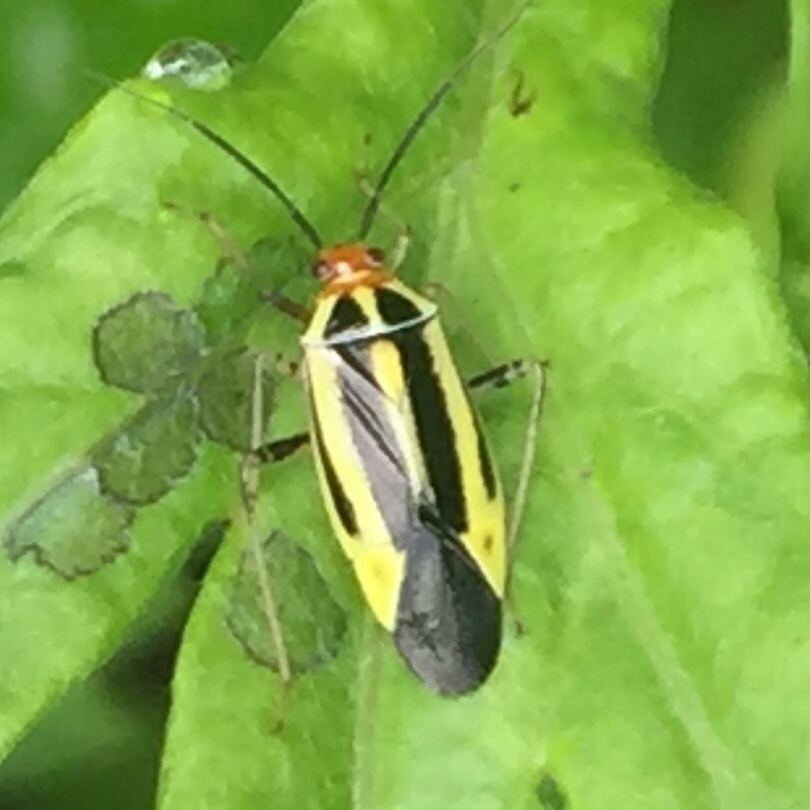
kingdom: Animalia
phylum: Arthropoda
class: Insecta
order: Hemiptera
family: Miridae
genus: Poecilocapsus
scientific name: Poecilocapsus lineatus
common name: Four-lined plant bug
